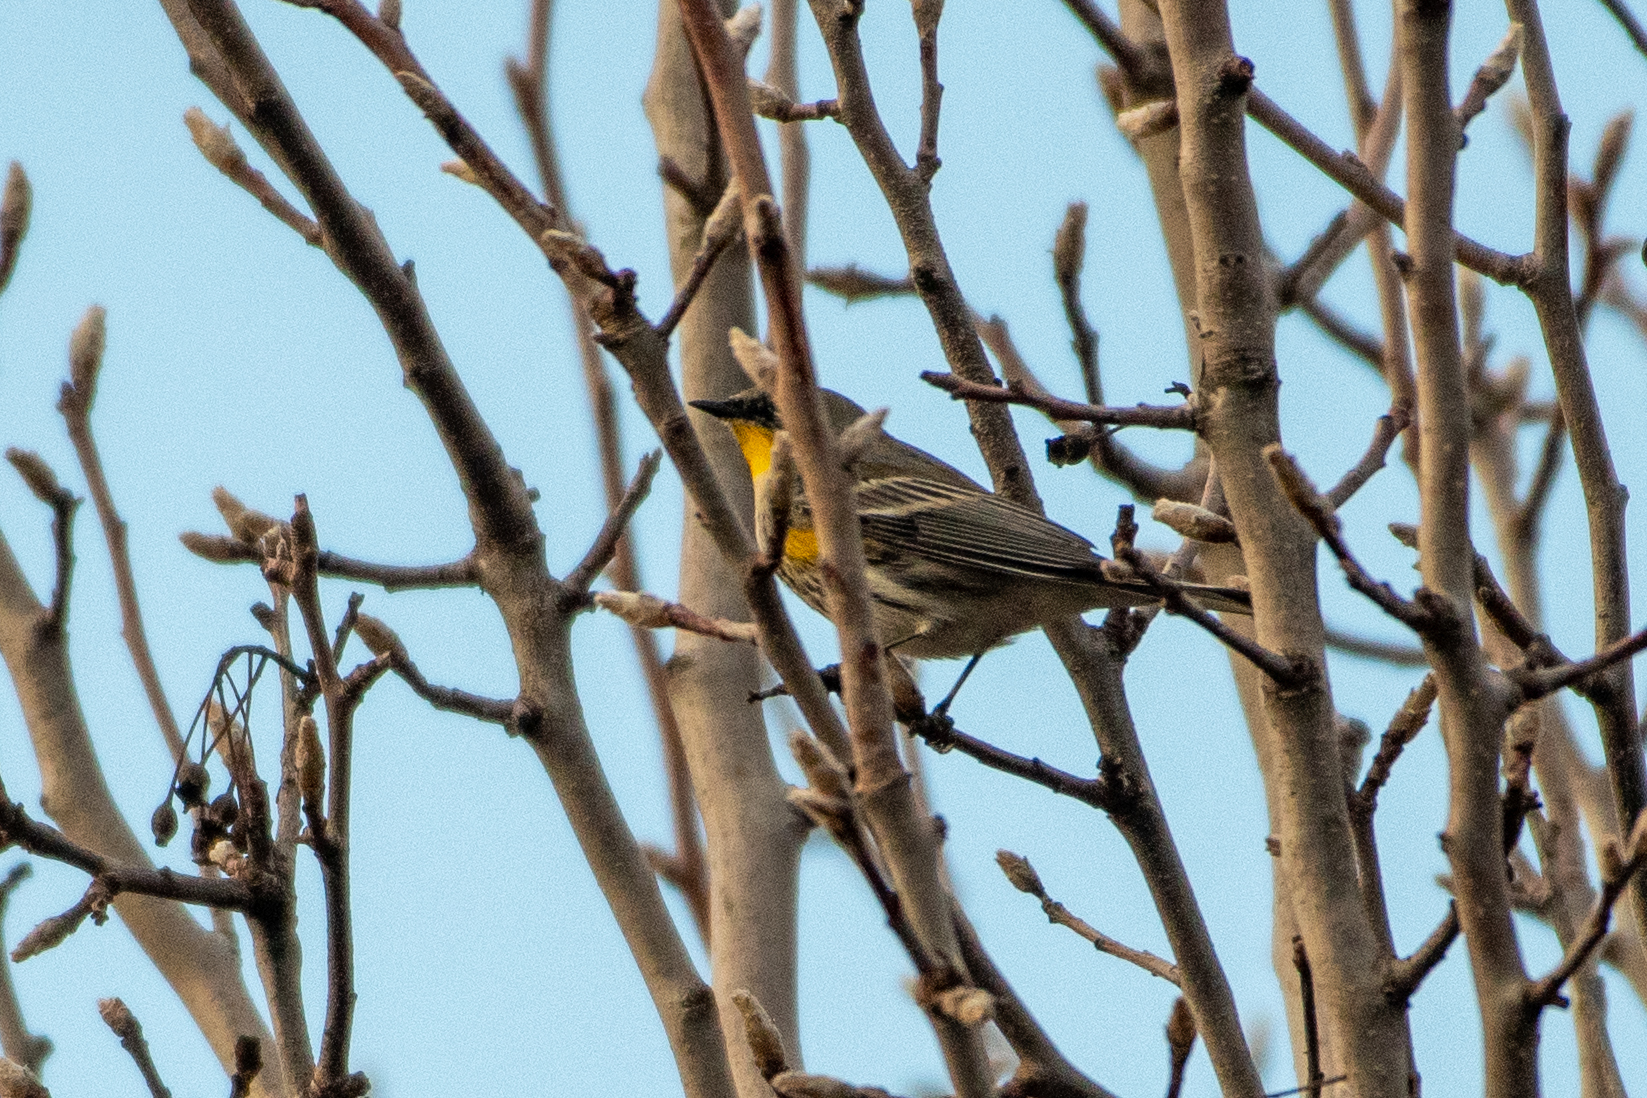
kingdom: Animalia
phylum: Chordata
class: Aves
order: Passeriformes
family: Parulidae
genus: Setophaga
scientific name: Setophaga coronata
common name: Myrtle warbler
